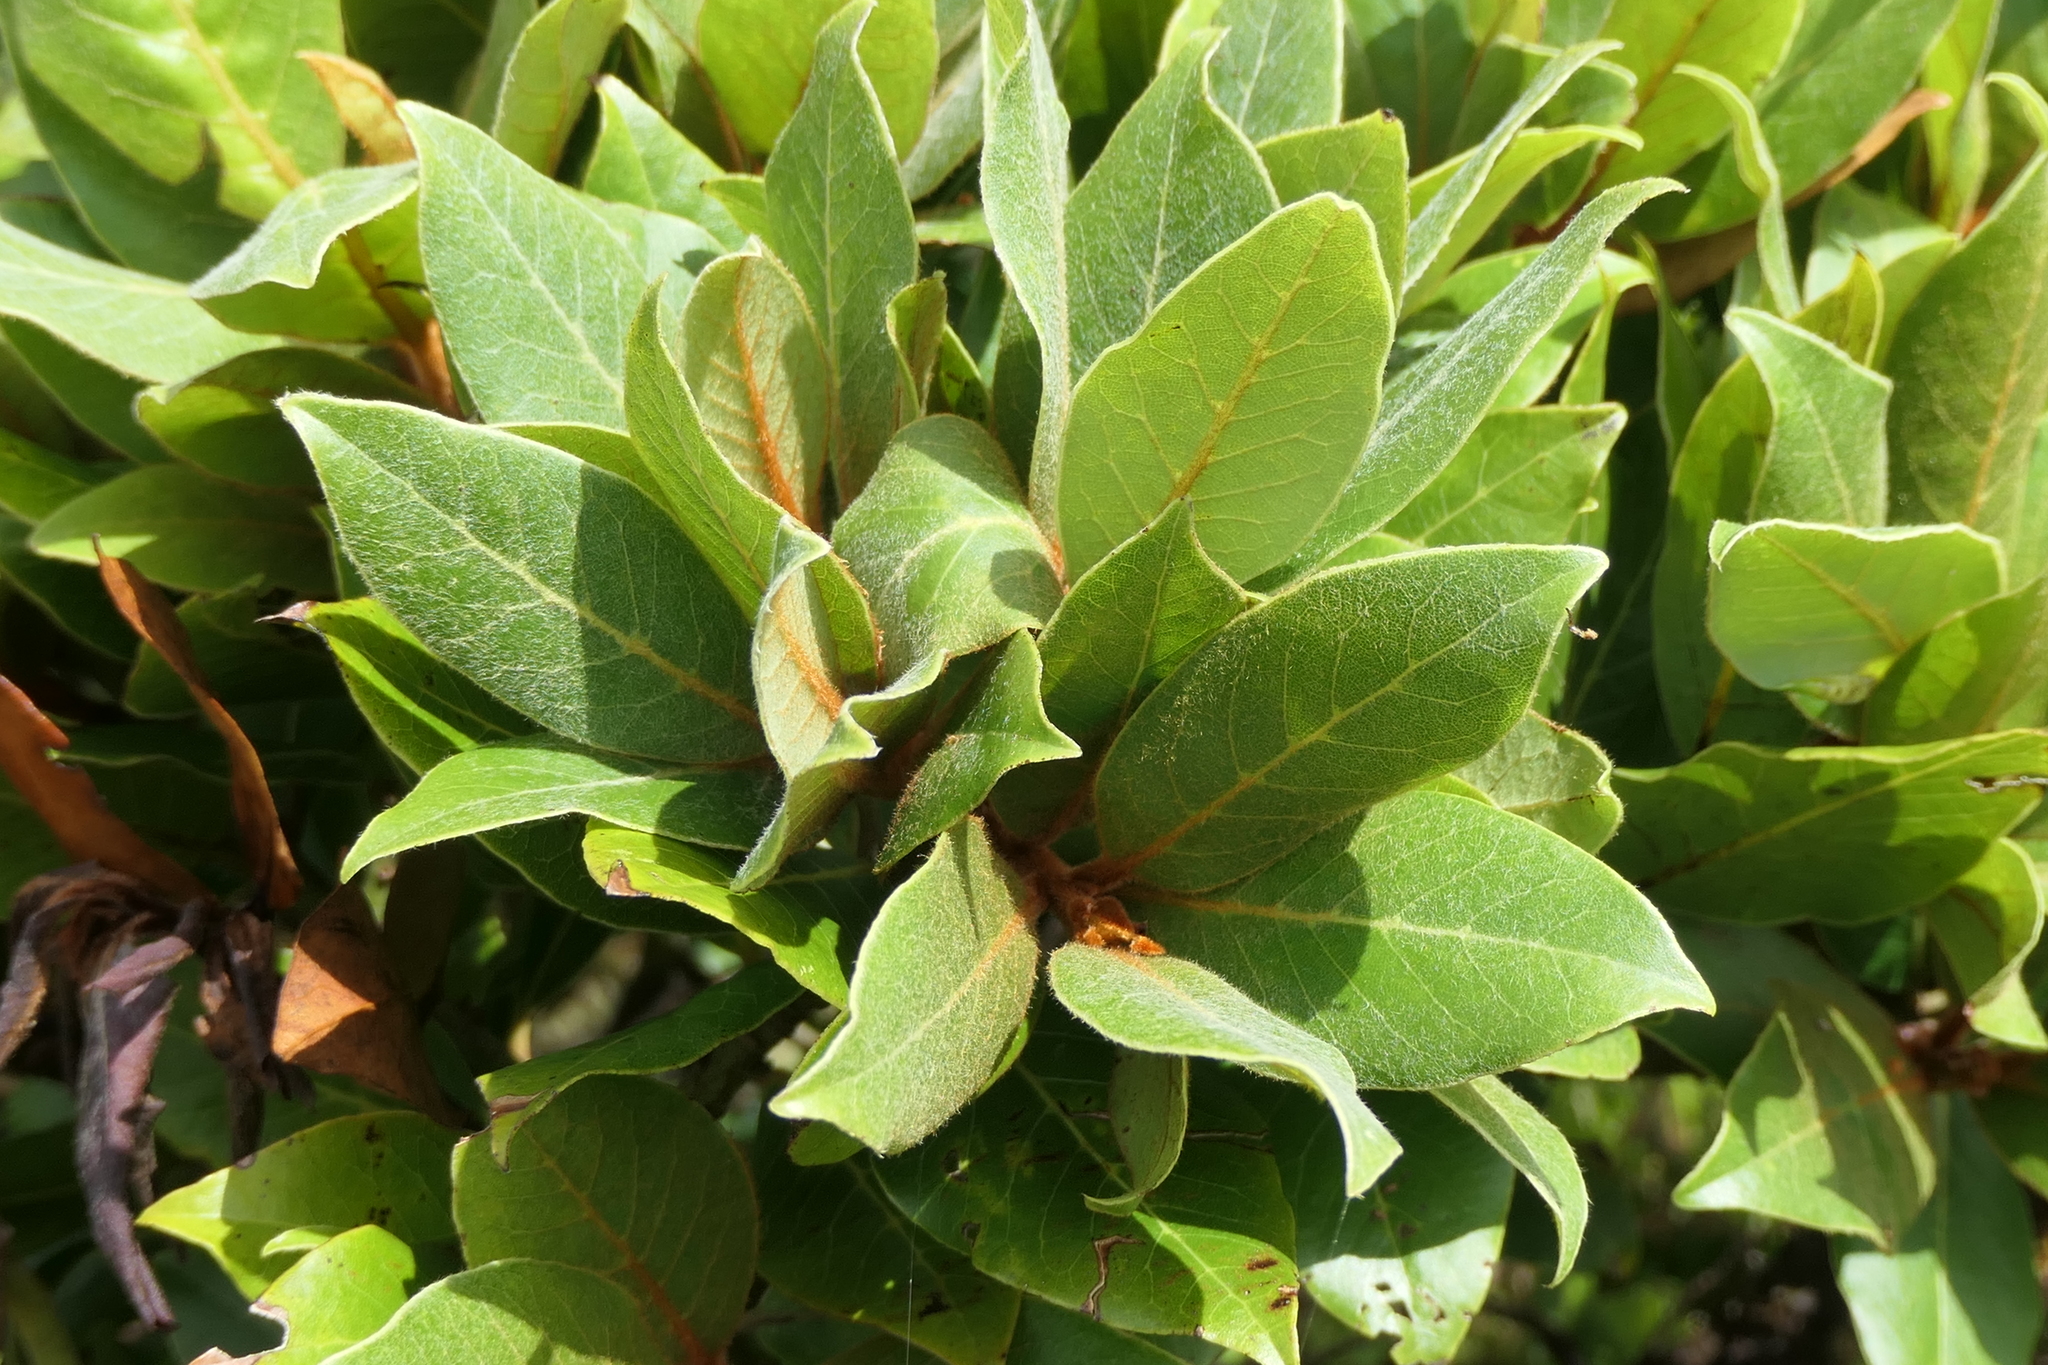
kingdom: Plantae
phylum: Tracheophyta
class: Magnoliopsida
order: Laurales
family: Lauraceae
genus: Laurus
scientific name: Laurus azorica
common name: Macaronesian laurel
